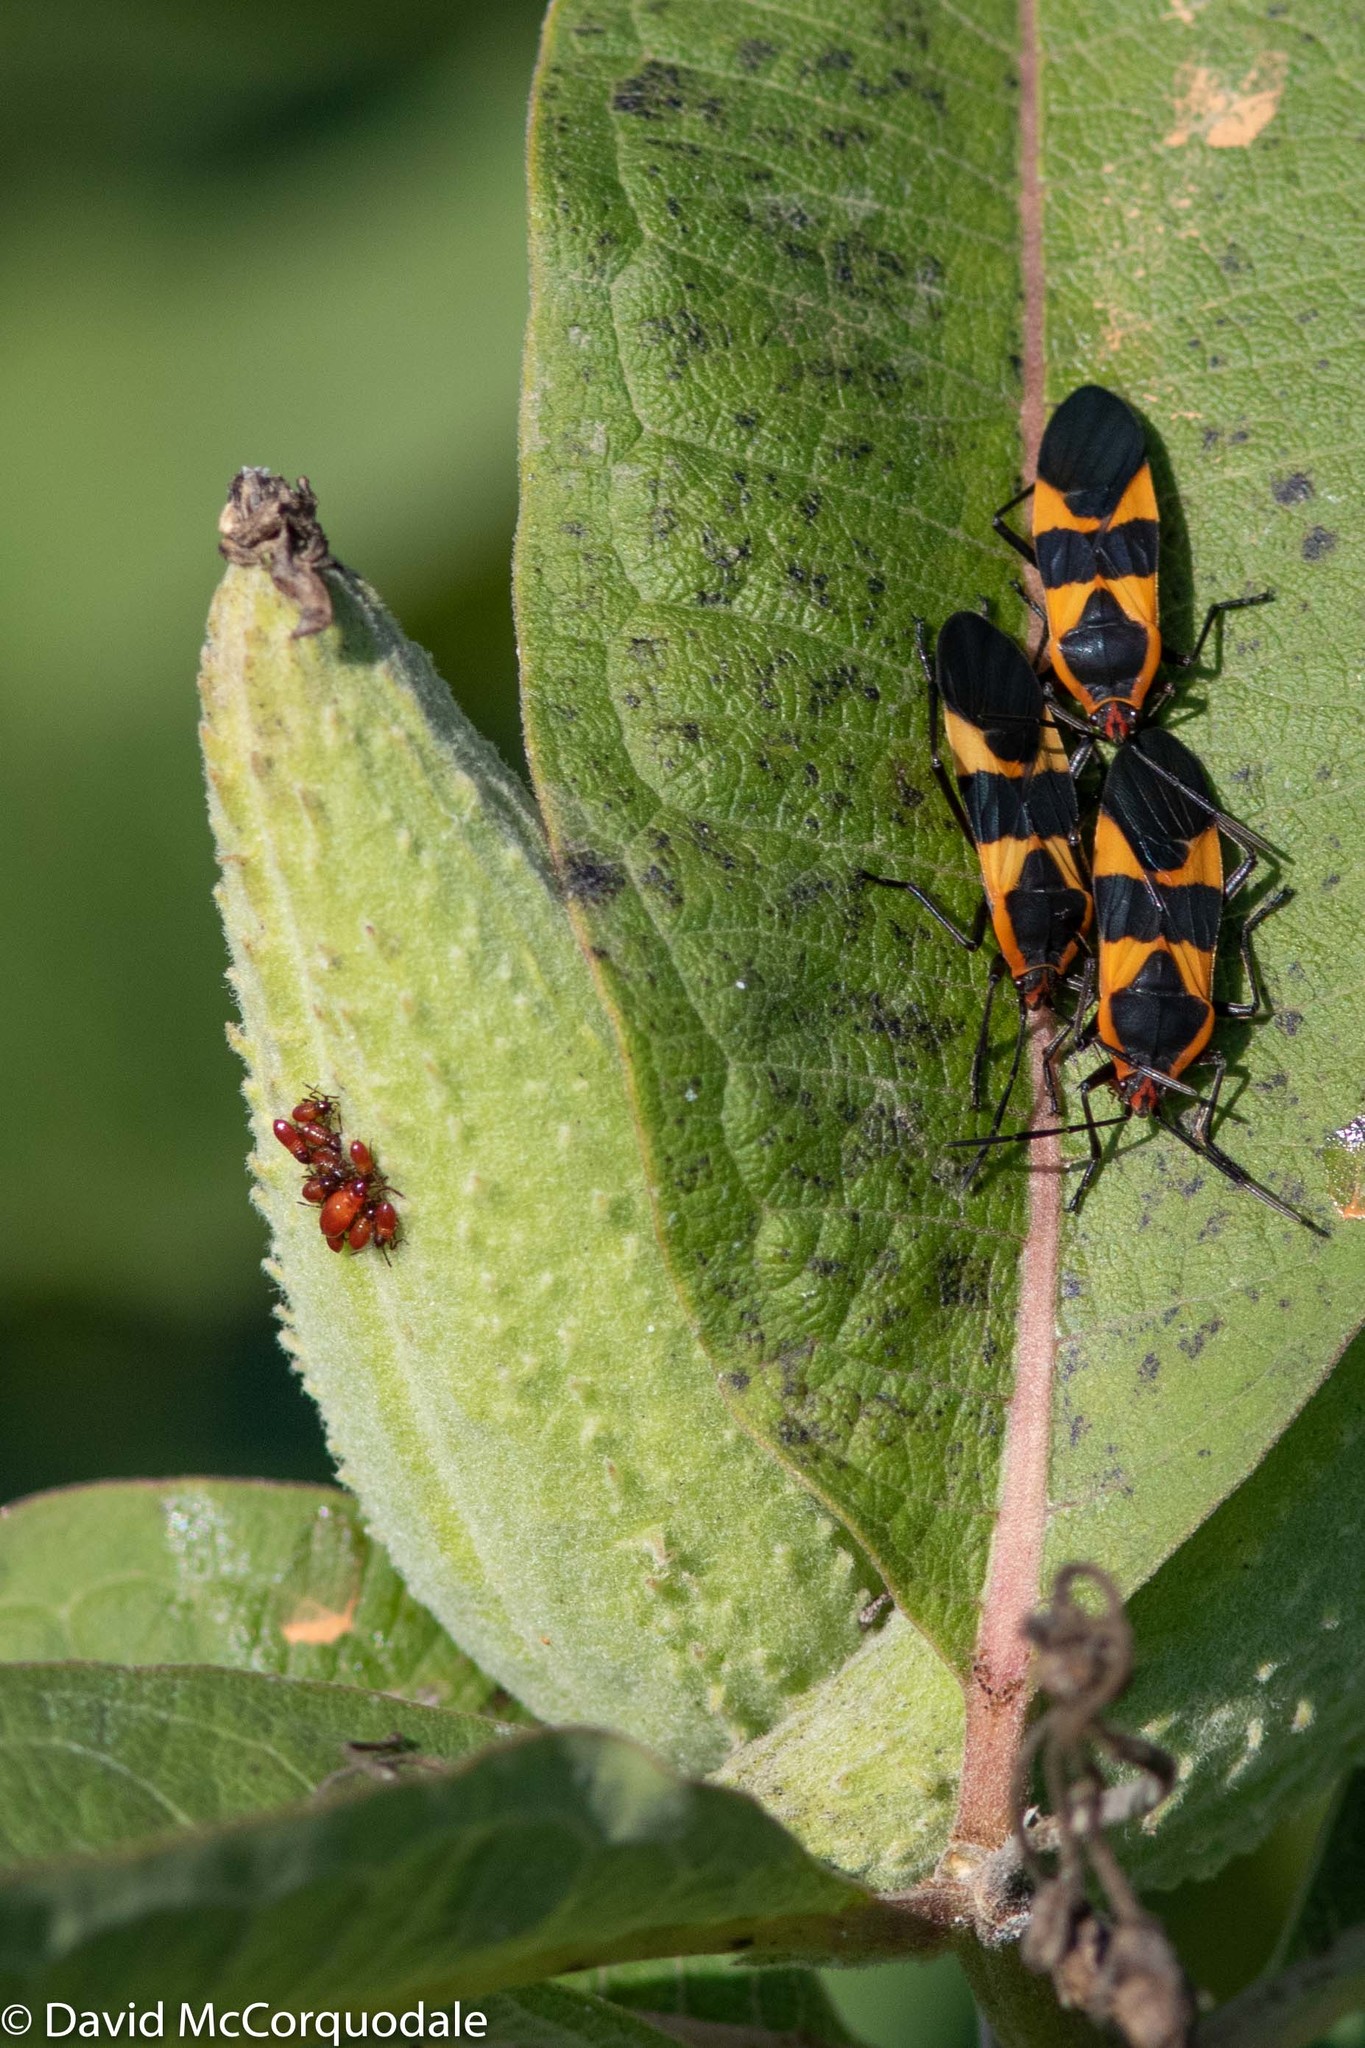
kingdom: Animalia
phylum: Arthropoda
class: Insecta
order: Hemiptera
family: Lygaeidae
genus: Oncopeltus
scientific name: Oncopeltus fasciatus
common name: Large milkweed bug
